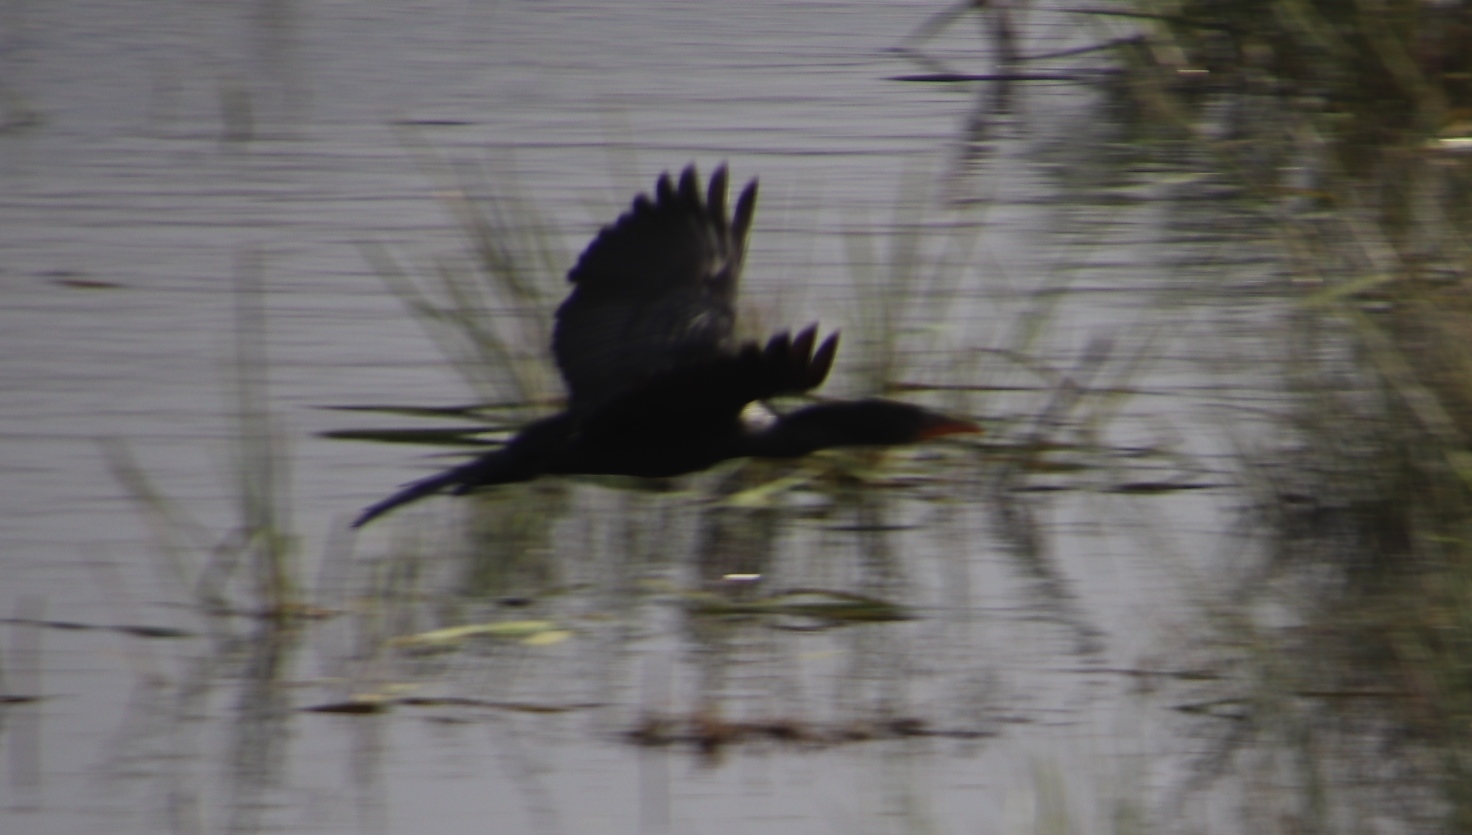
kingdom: Animalia
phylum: Chordata
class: Aves
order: Suliformes
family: Phalacrocoracidae
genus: Microcarbo
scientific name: Microcarbo africanus
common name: Long-tailed cormorant
